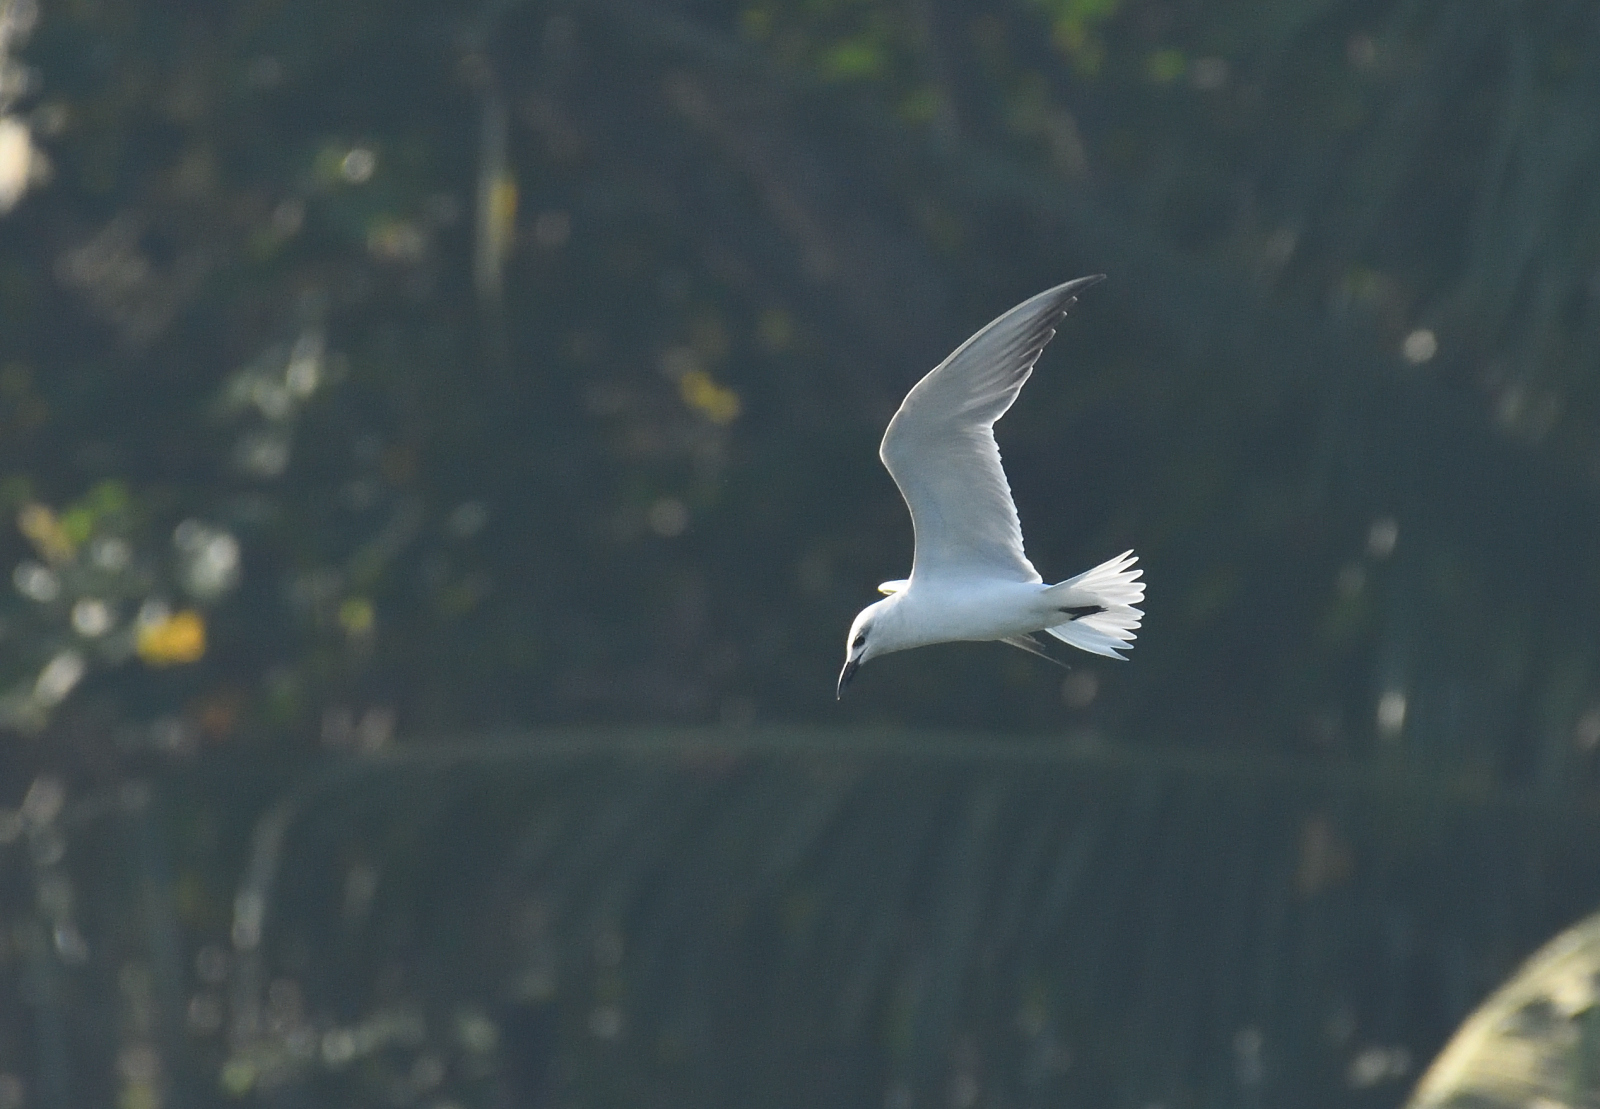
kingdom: Animalia
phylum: Chordata
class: Aves
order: Charadriiformes
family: Laridae
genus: Gelochelidon
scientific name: Gelochelidon nilotica
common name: Gull-billed tern
